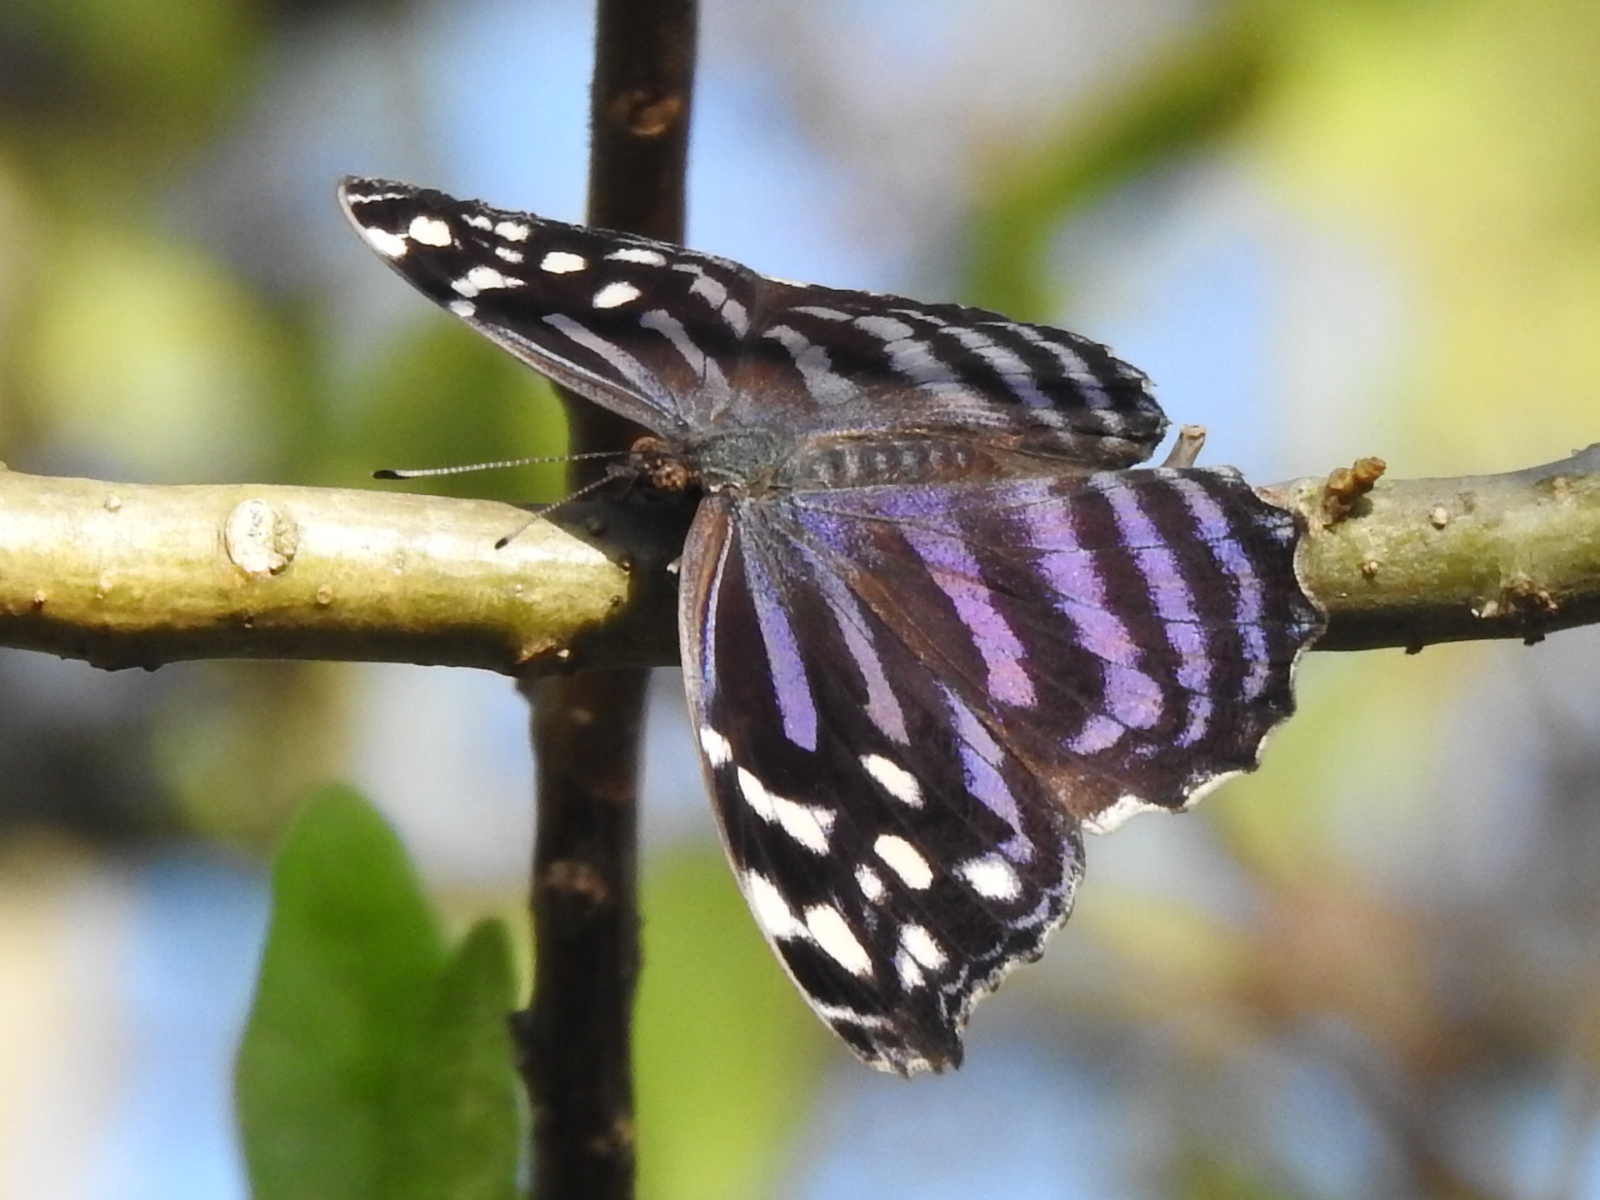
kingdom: Animalia
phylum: Arthropoda
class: Insecta
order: Lepidoptera
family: Nymphalidae
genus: Myscelia
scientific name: Myscelia ethusa
